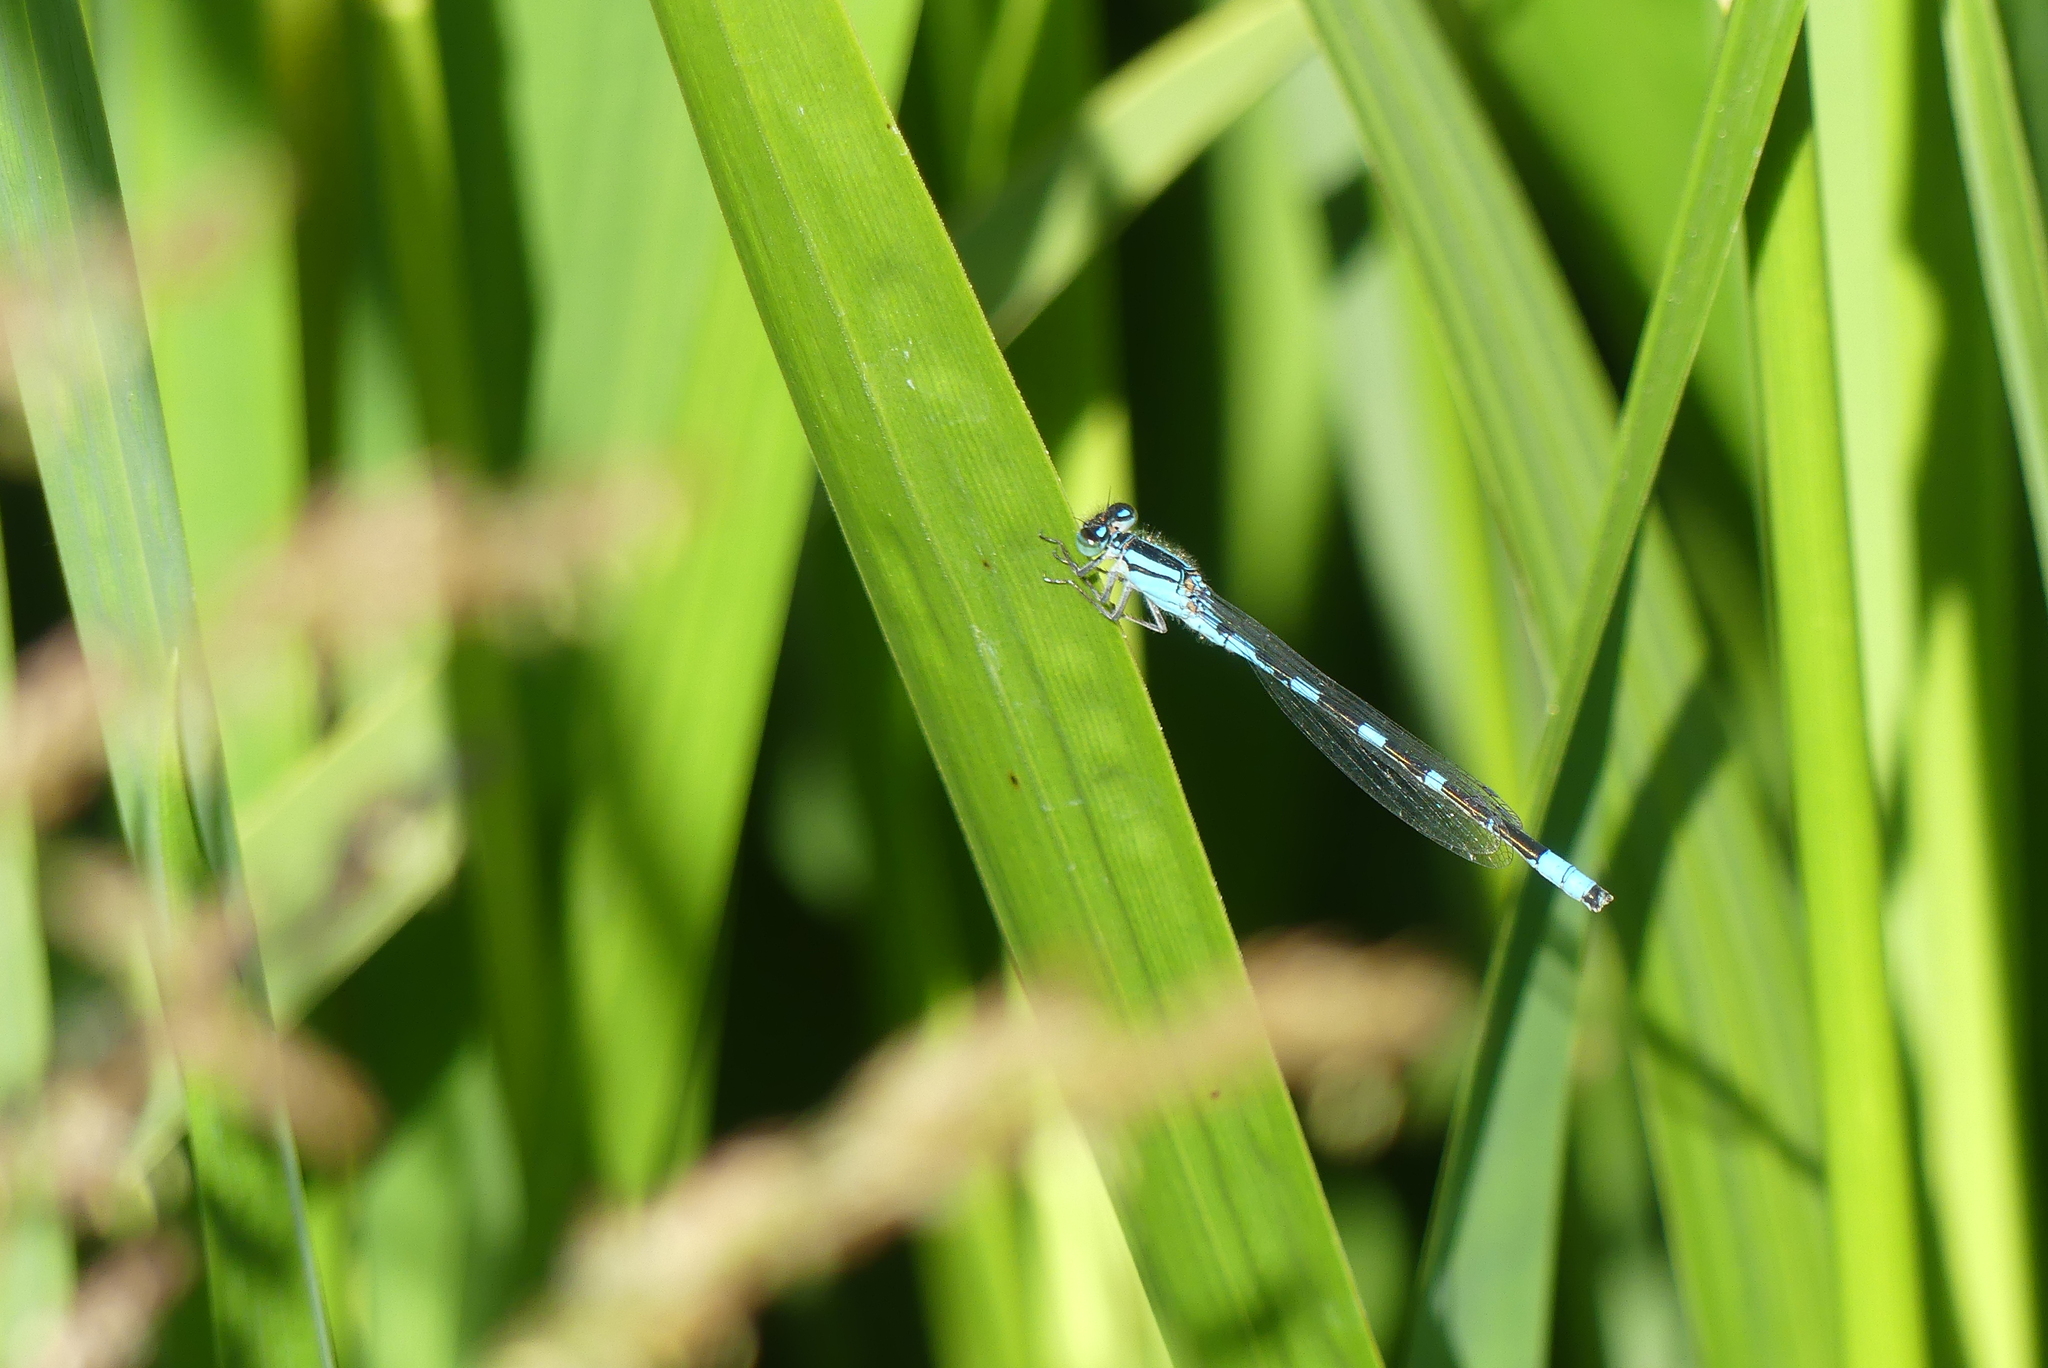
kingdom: Animalia
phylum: Arthropoda
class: Insecta
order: Odonata
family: Coenagrionidae
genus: Enallagma
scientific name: Enallagma carunculatum
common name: Tule bluet
